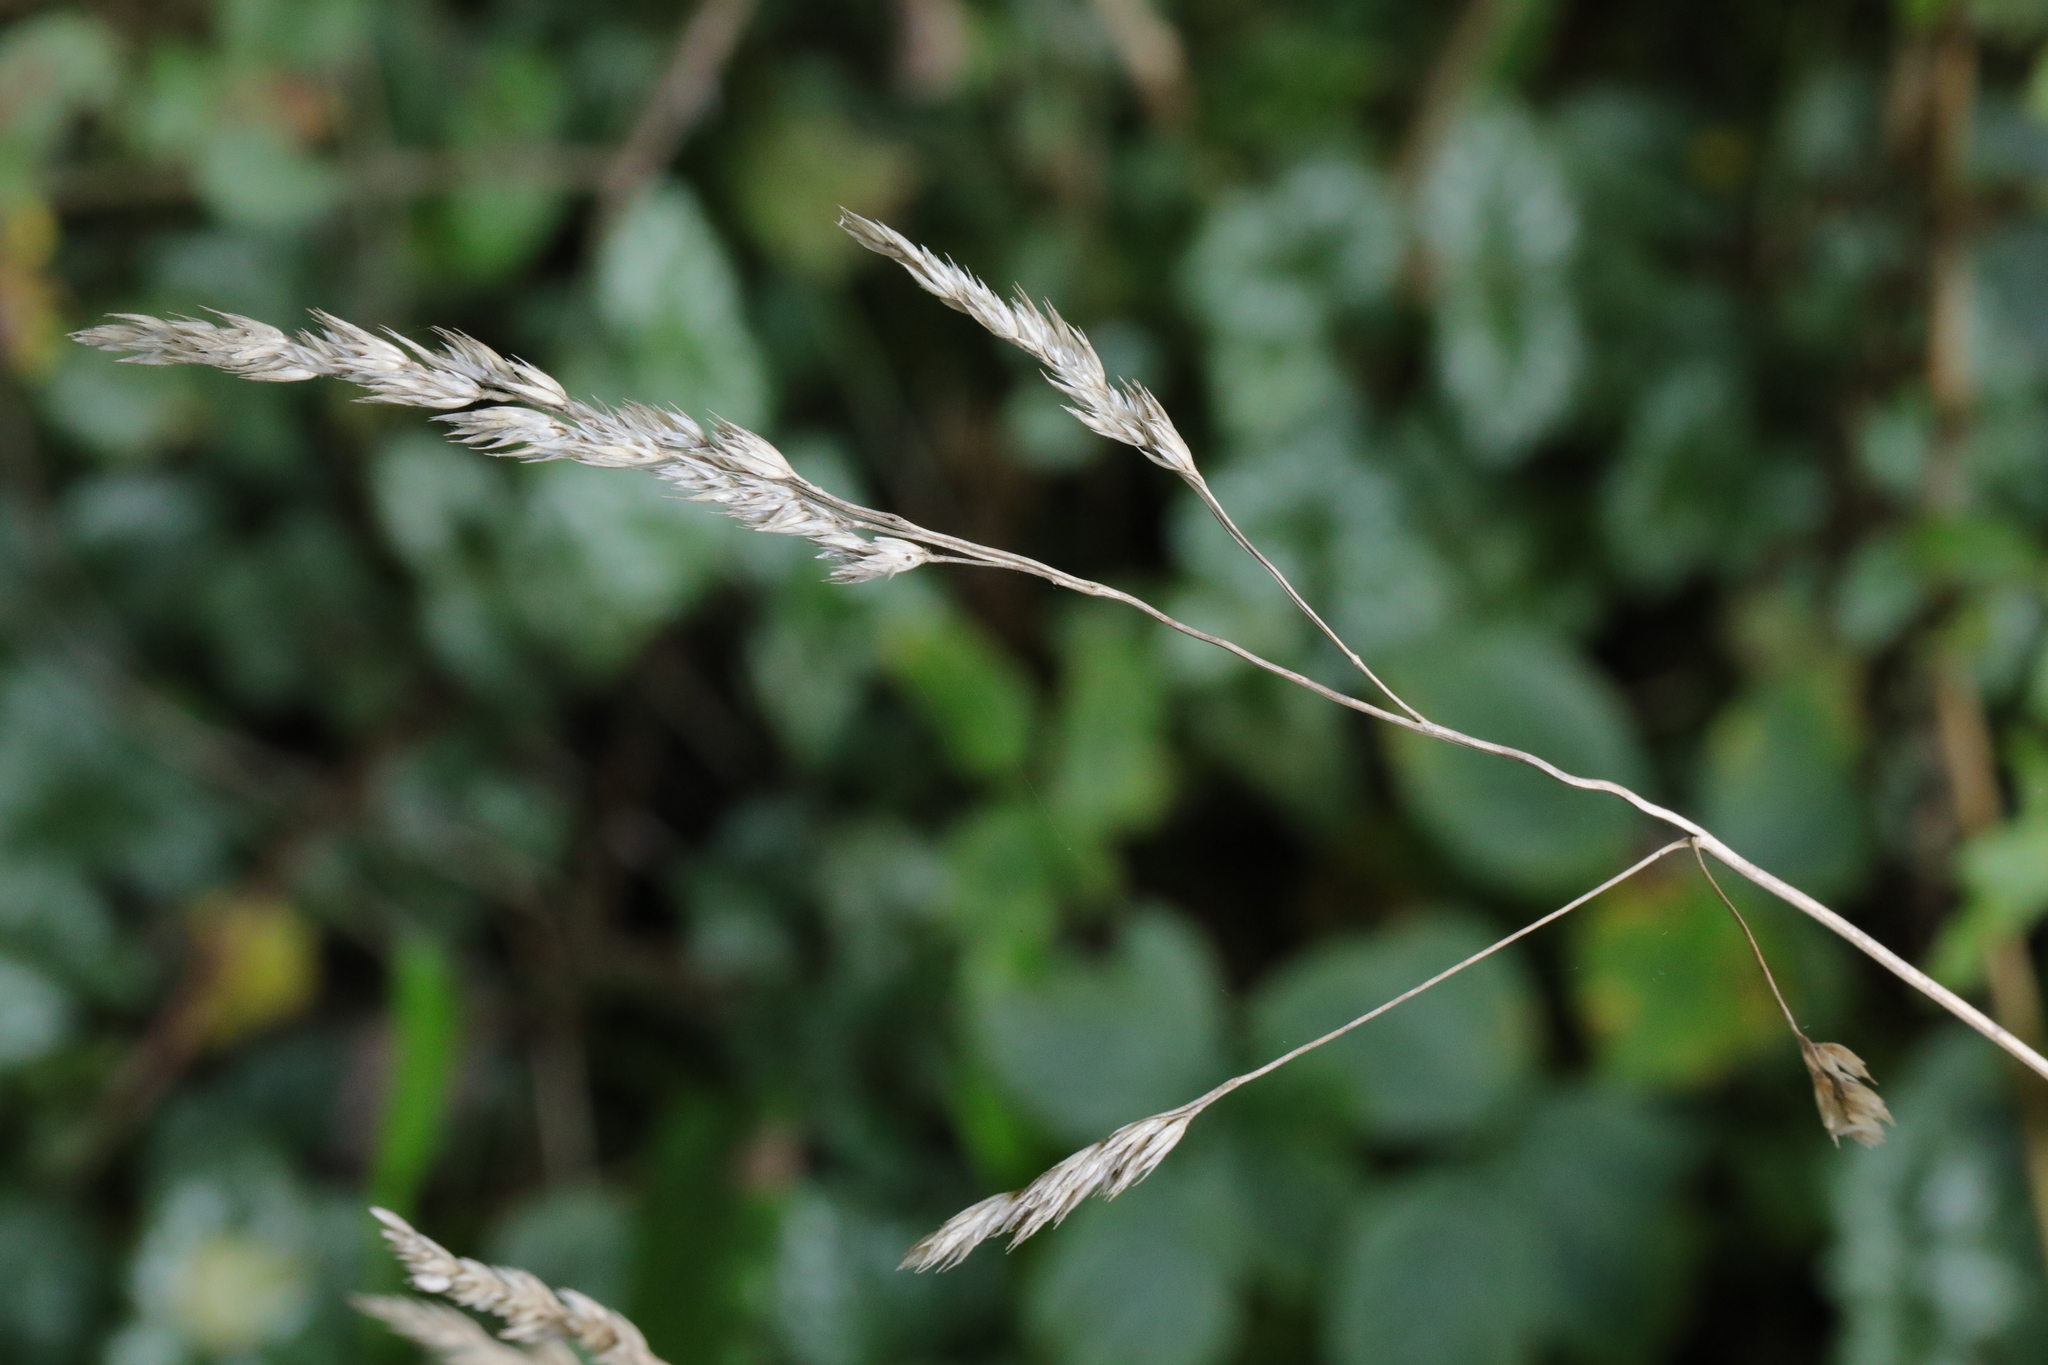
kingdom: Plantae
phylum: Tracheophyta
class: Liliopsida
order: Poales
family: Poaceae
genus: Dactylis
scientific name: Dactylis glomerata
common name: Orchardgrass
